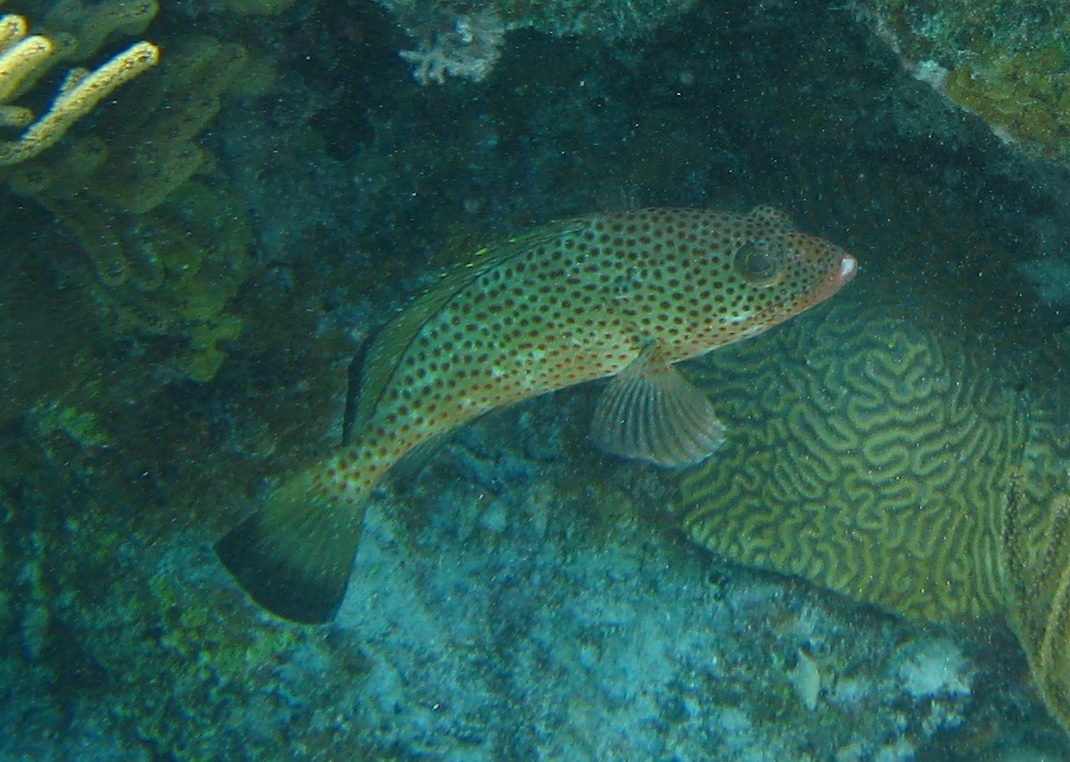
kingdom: Animalia
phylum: Chordata
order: Perciformes
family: Serranidae
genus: Epinephelus
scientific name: Epinephelus guttatus
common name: Red hind
